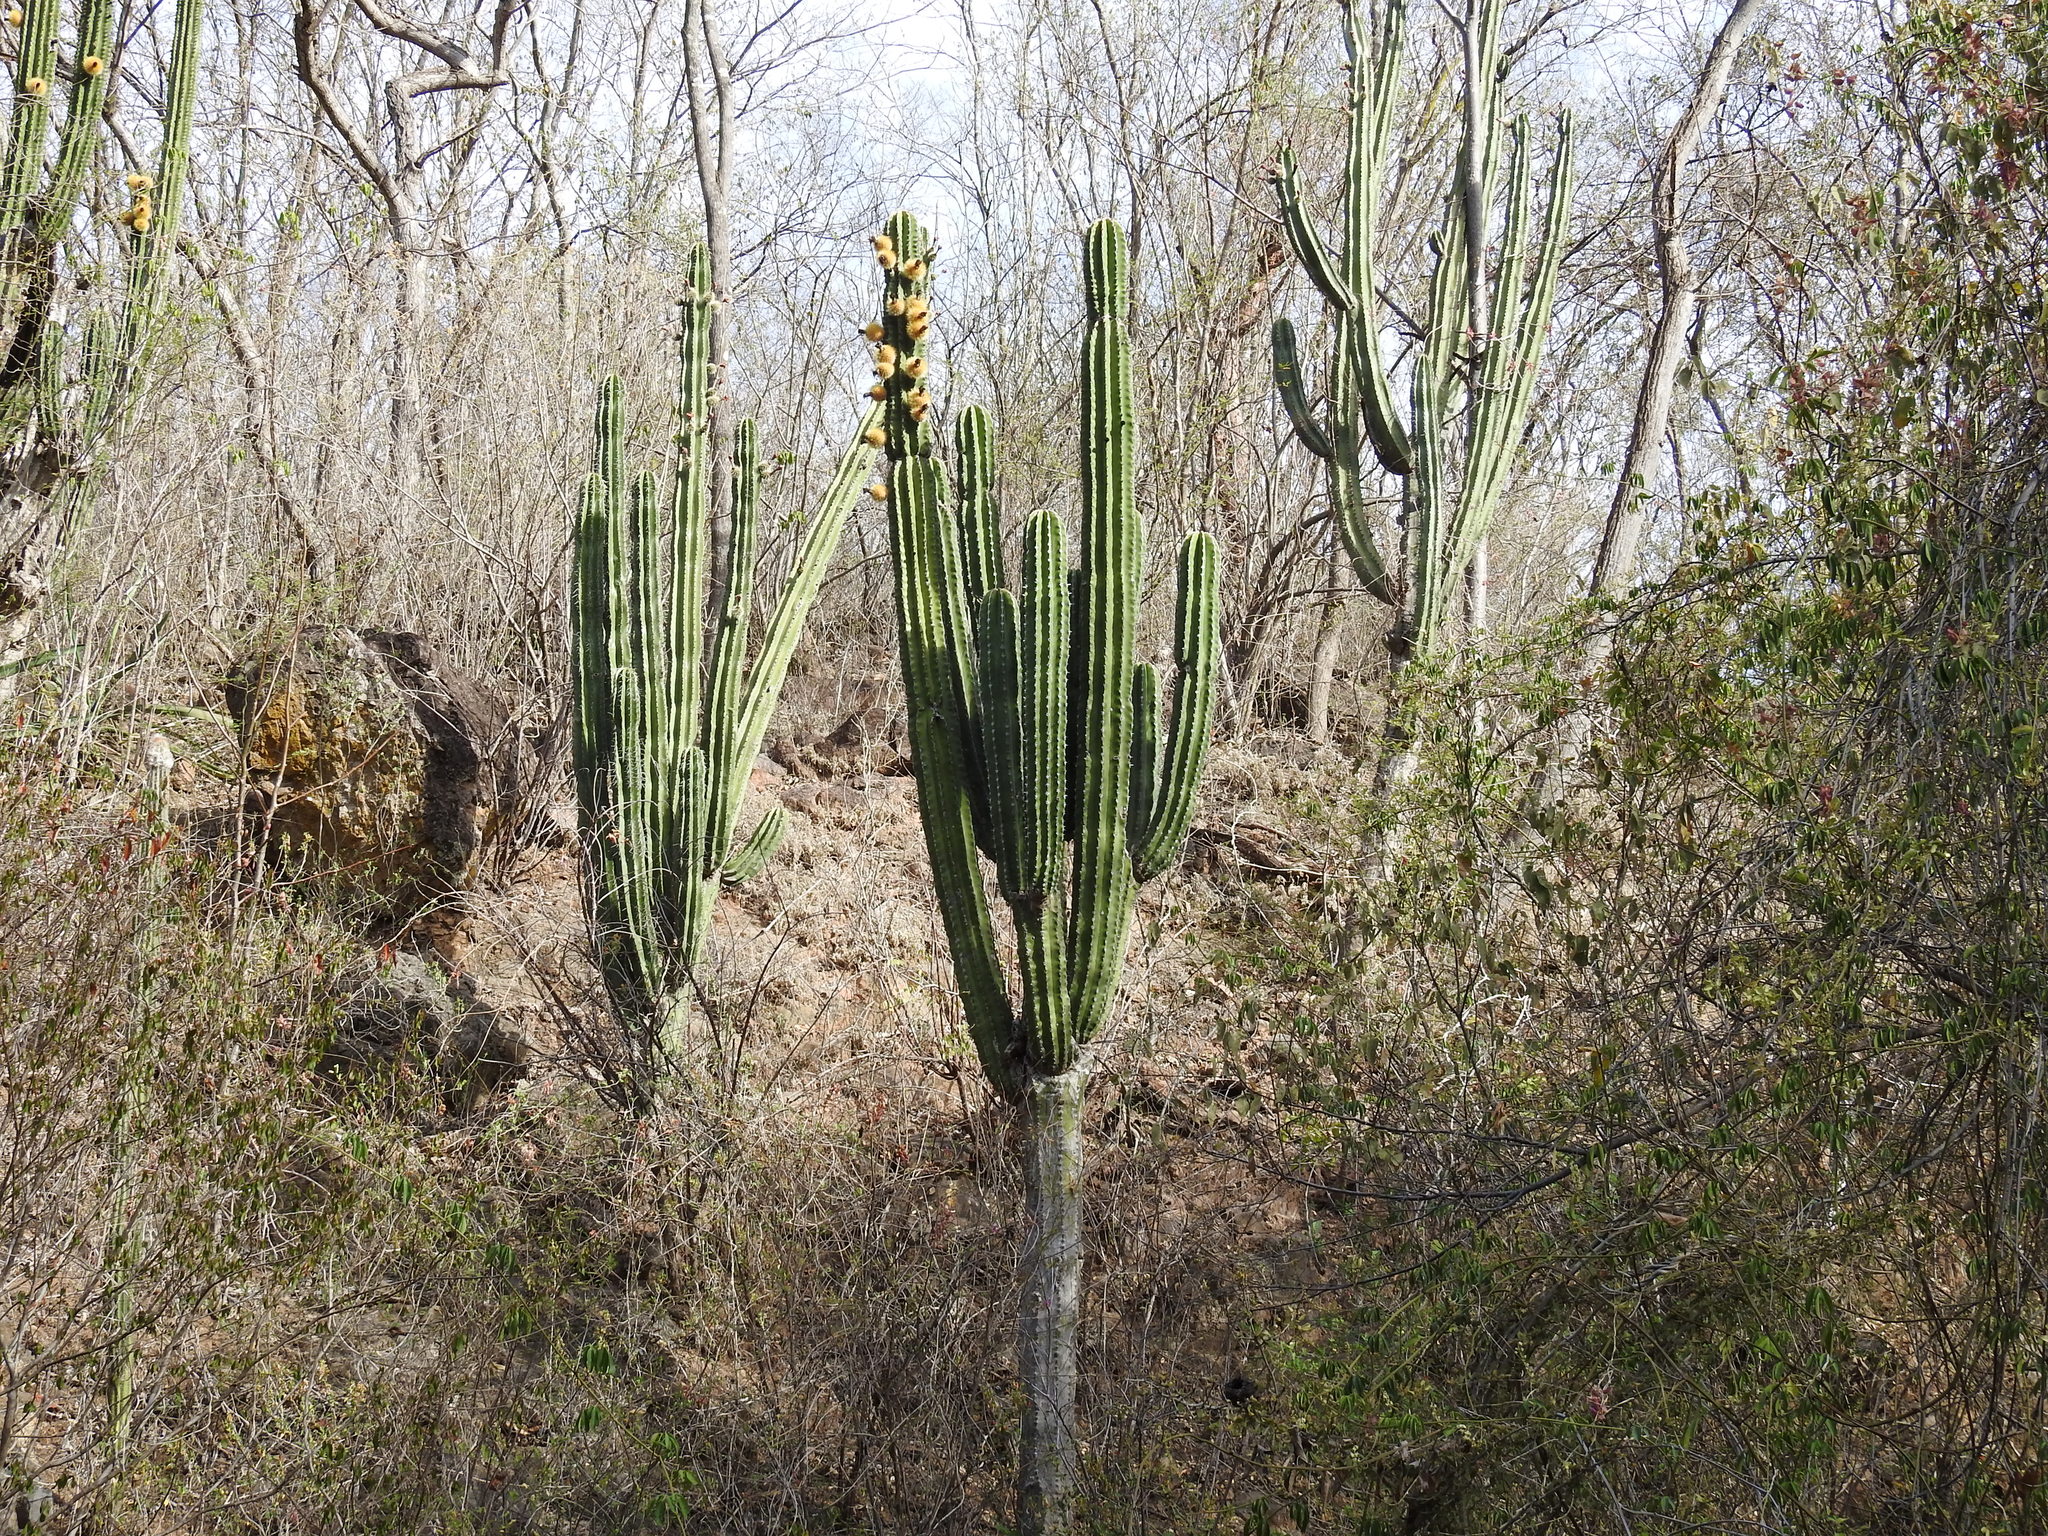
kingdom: Plantae
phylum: Tracheophyta
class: Magnoliopsida
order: Caryophyllales
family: Cactaceae
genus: Pachycereus
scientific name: Pachycereus pecten-aboriginum
